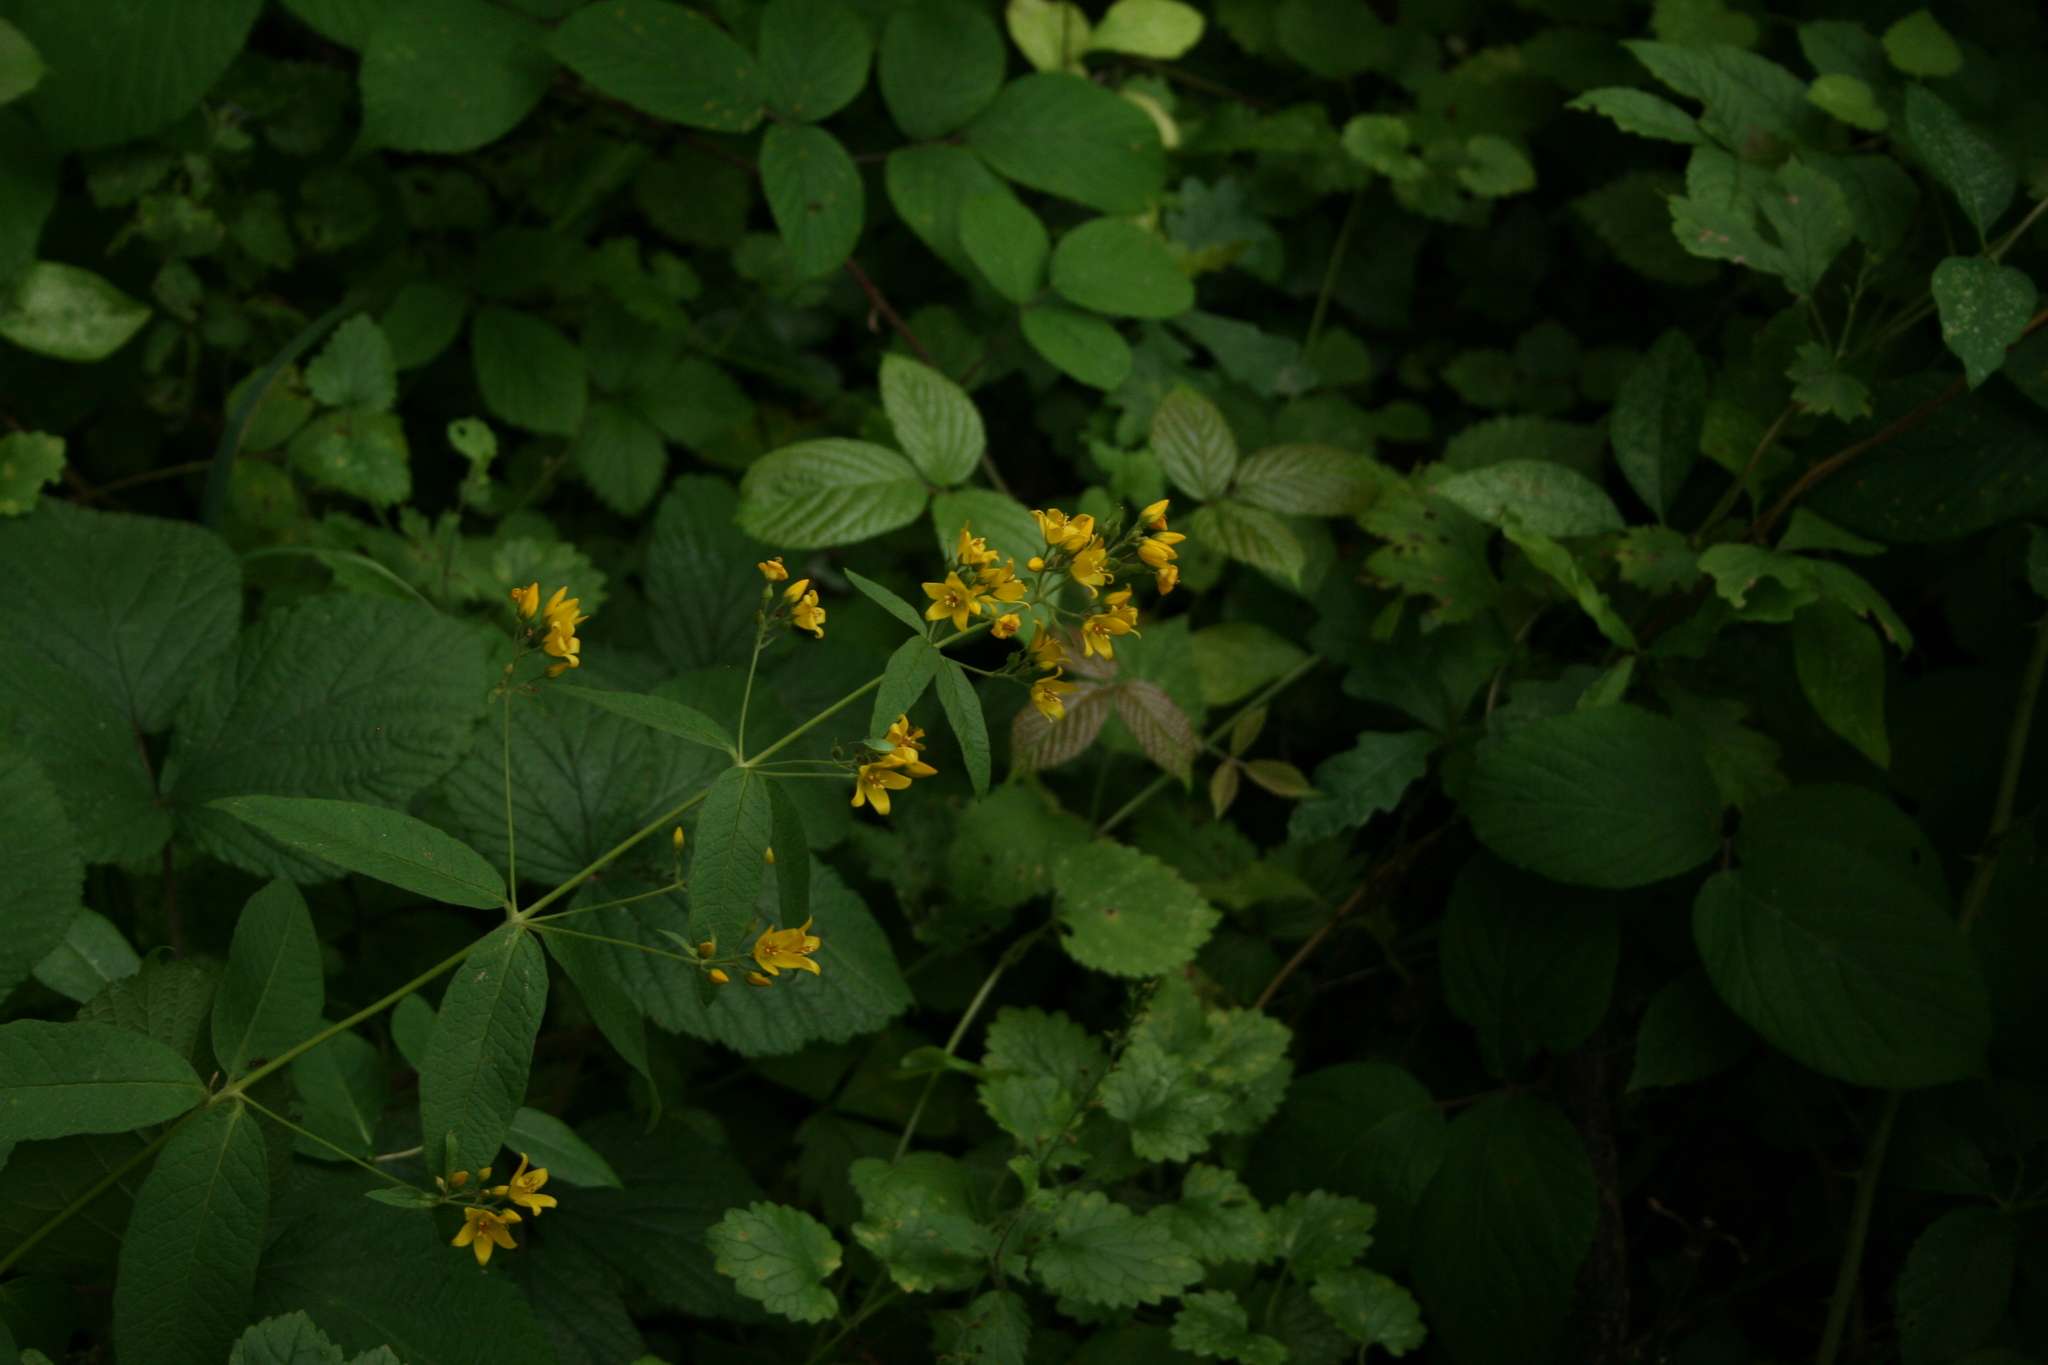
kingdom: Plantae
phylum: Tracheophyta
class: Magnoliopsida
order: Ericales
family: Primulaceae
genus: Lysimachia
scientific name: Lysimachia vulgaris
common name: Yellow loosestrife
